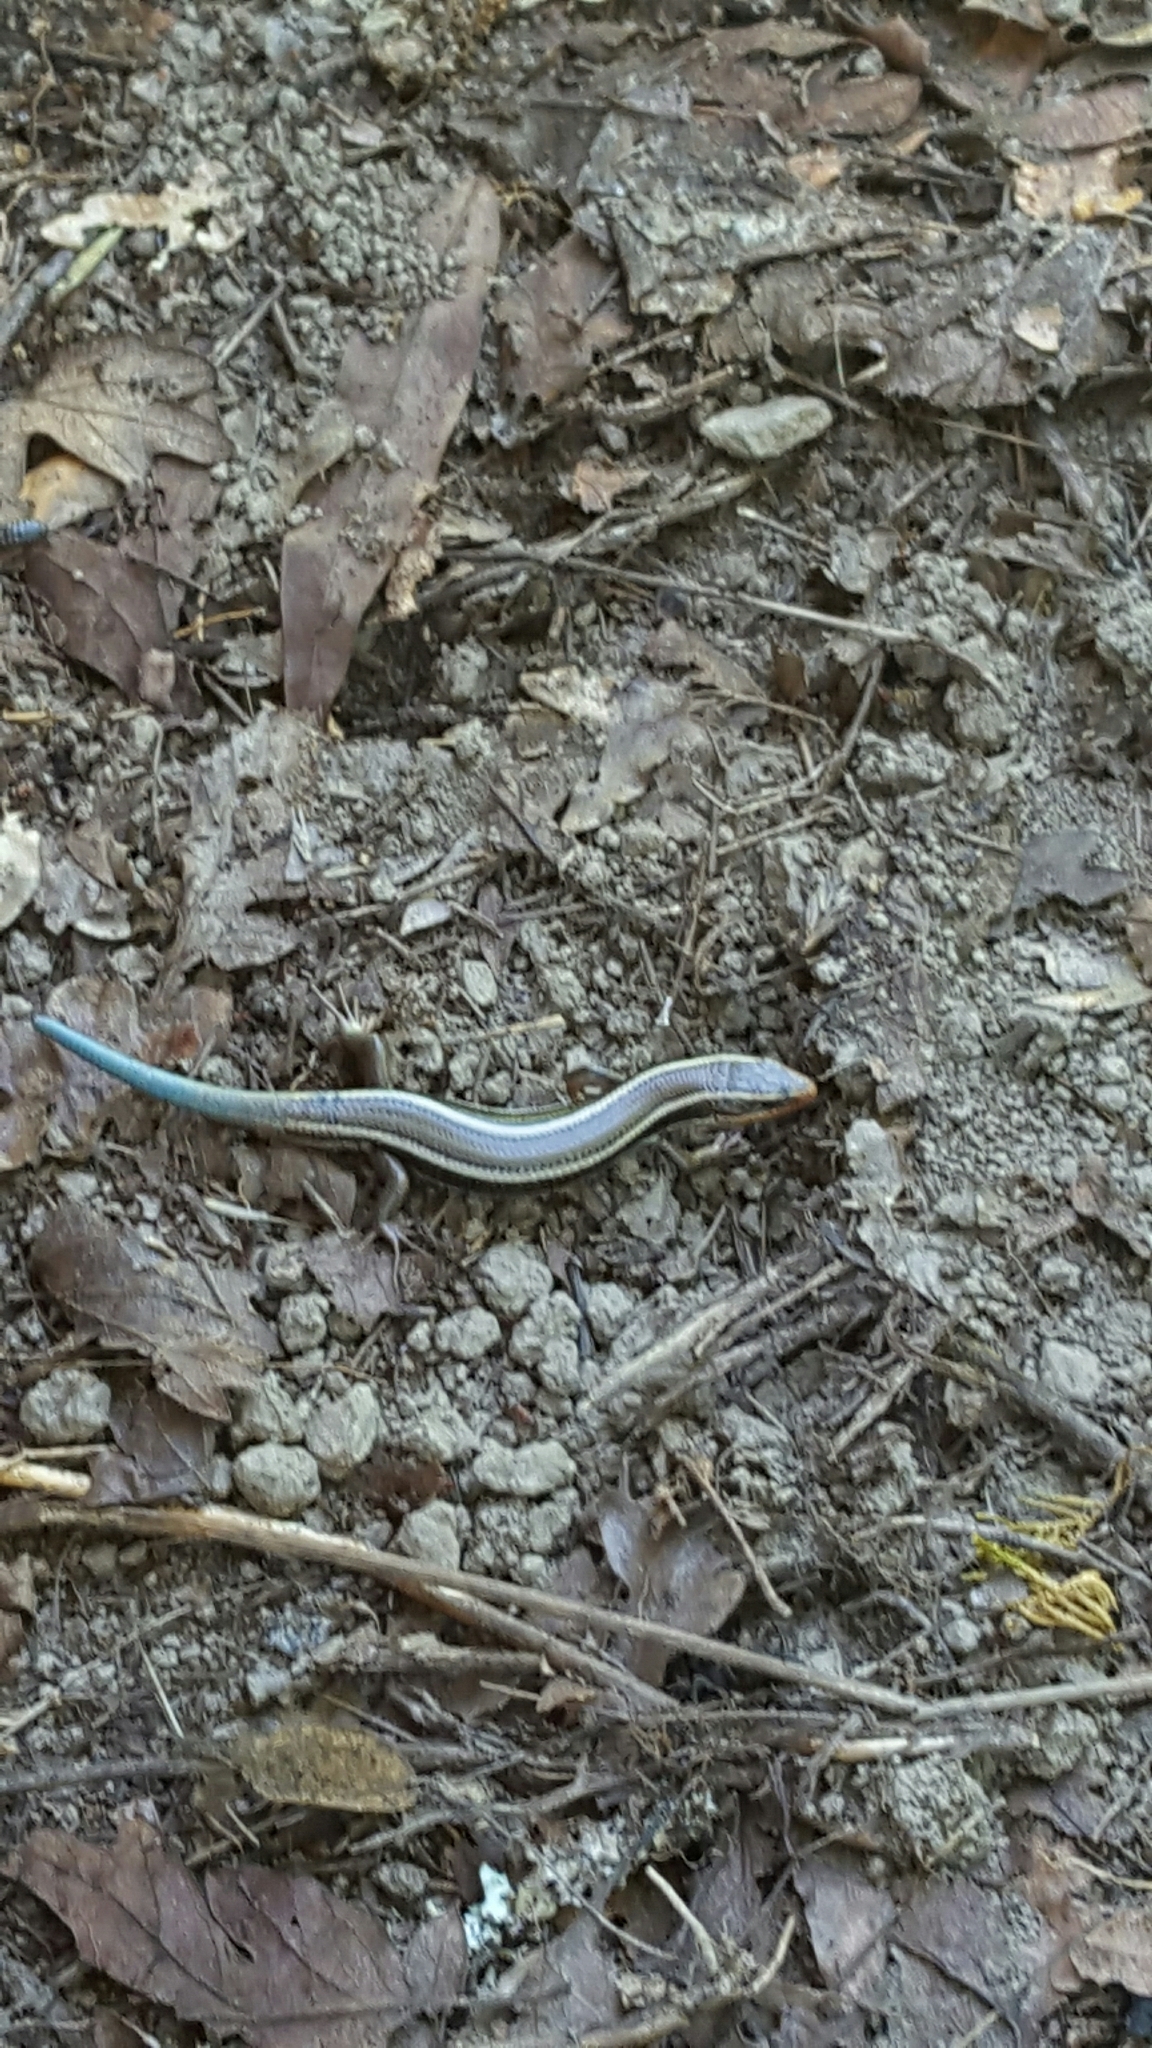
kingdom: Animalia
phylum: Chordata
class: Squamata
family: Scincidae
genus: Plestiodon
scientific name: Plestiodon skiltonianus
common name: Coronado island skink [interparietalis]
